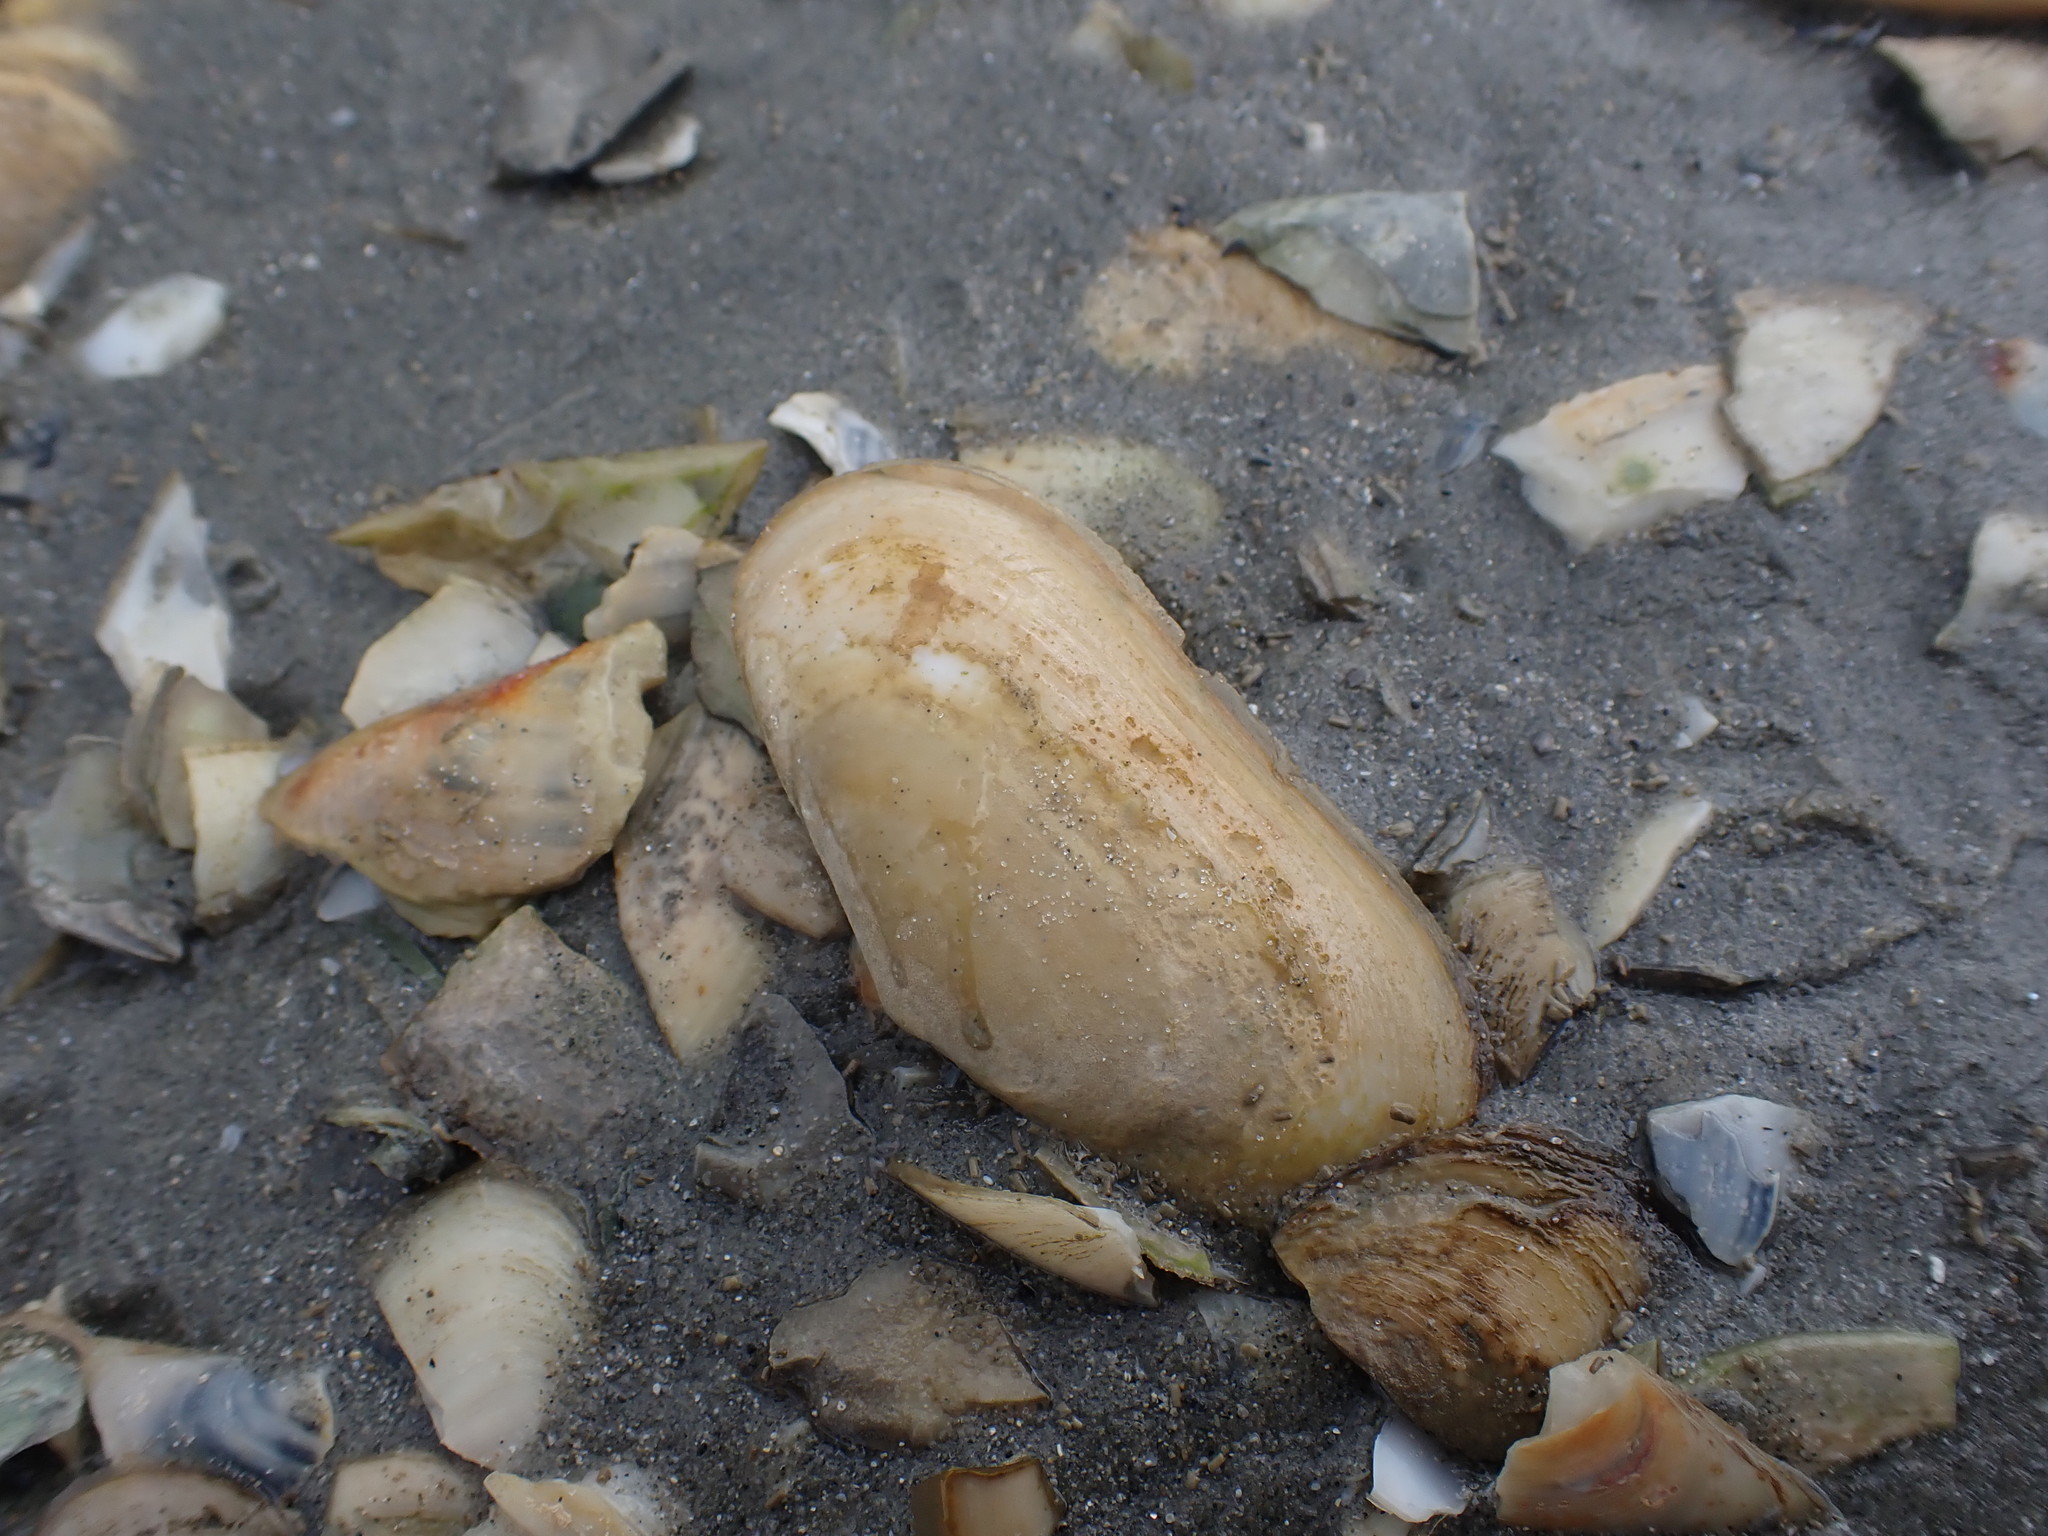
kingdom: Animalia
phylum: Mollusca
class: Bivalvia
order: Venerida
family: Mesodesmatidae
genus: Paphies
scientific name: Paphies australis
